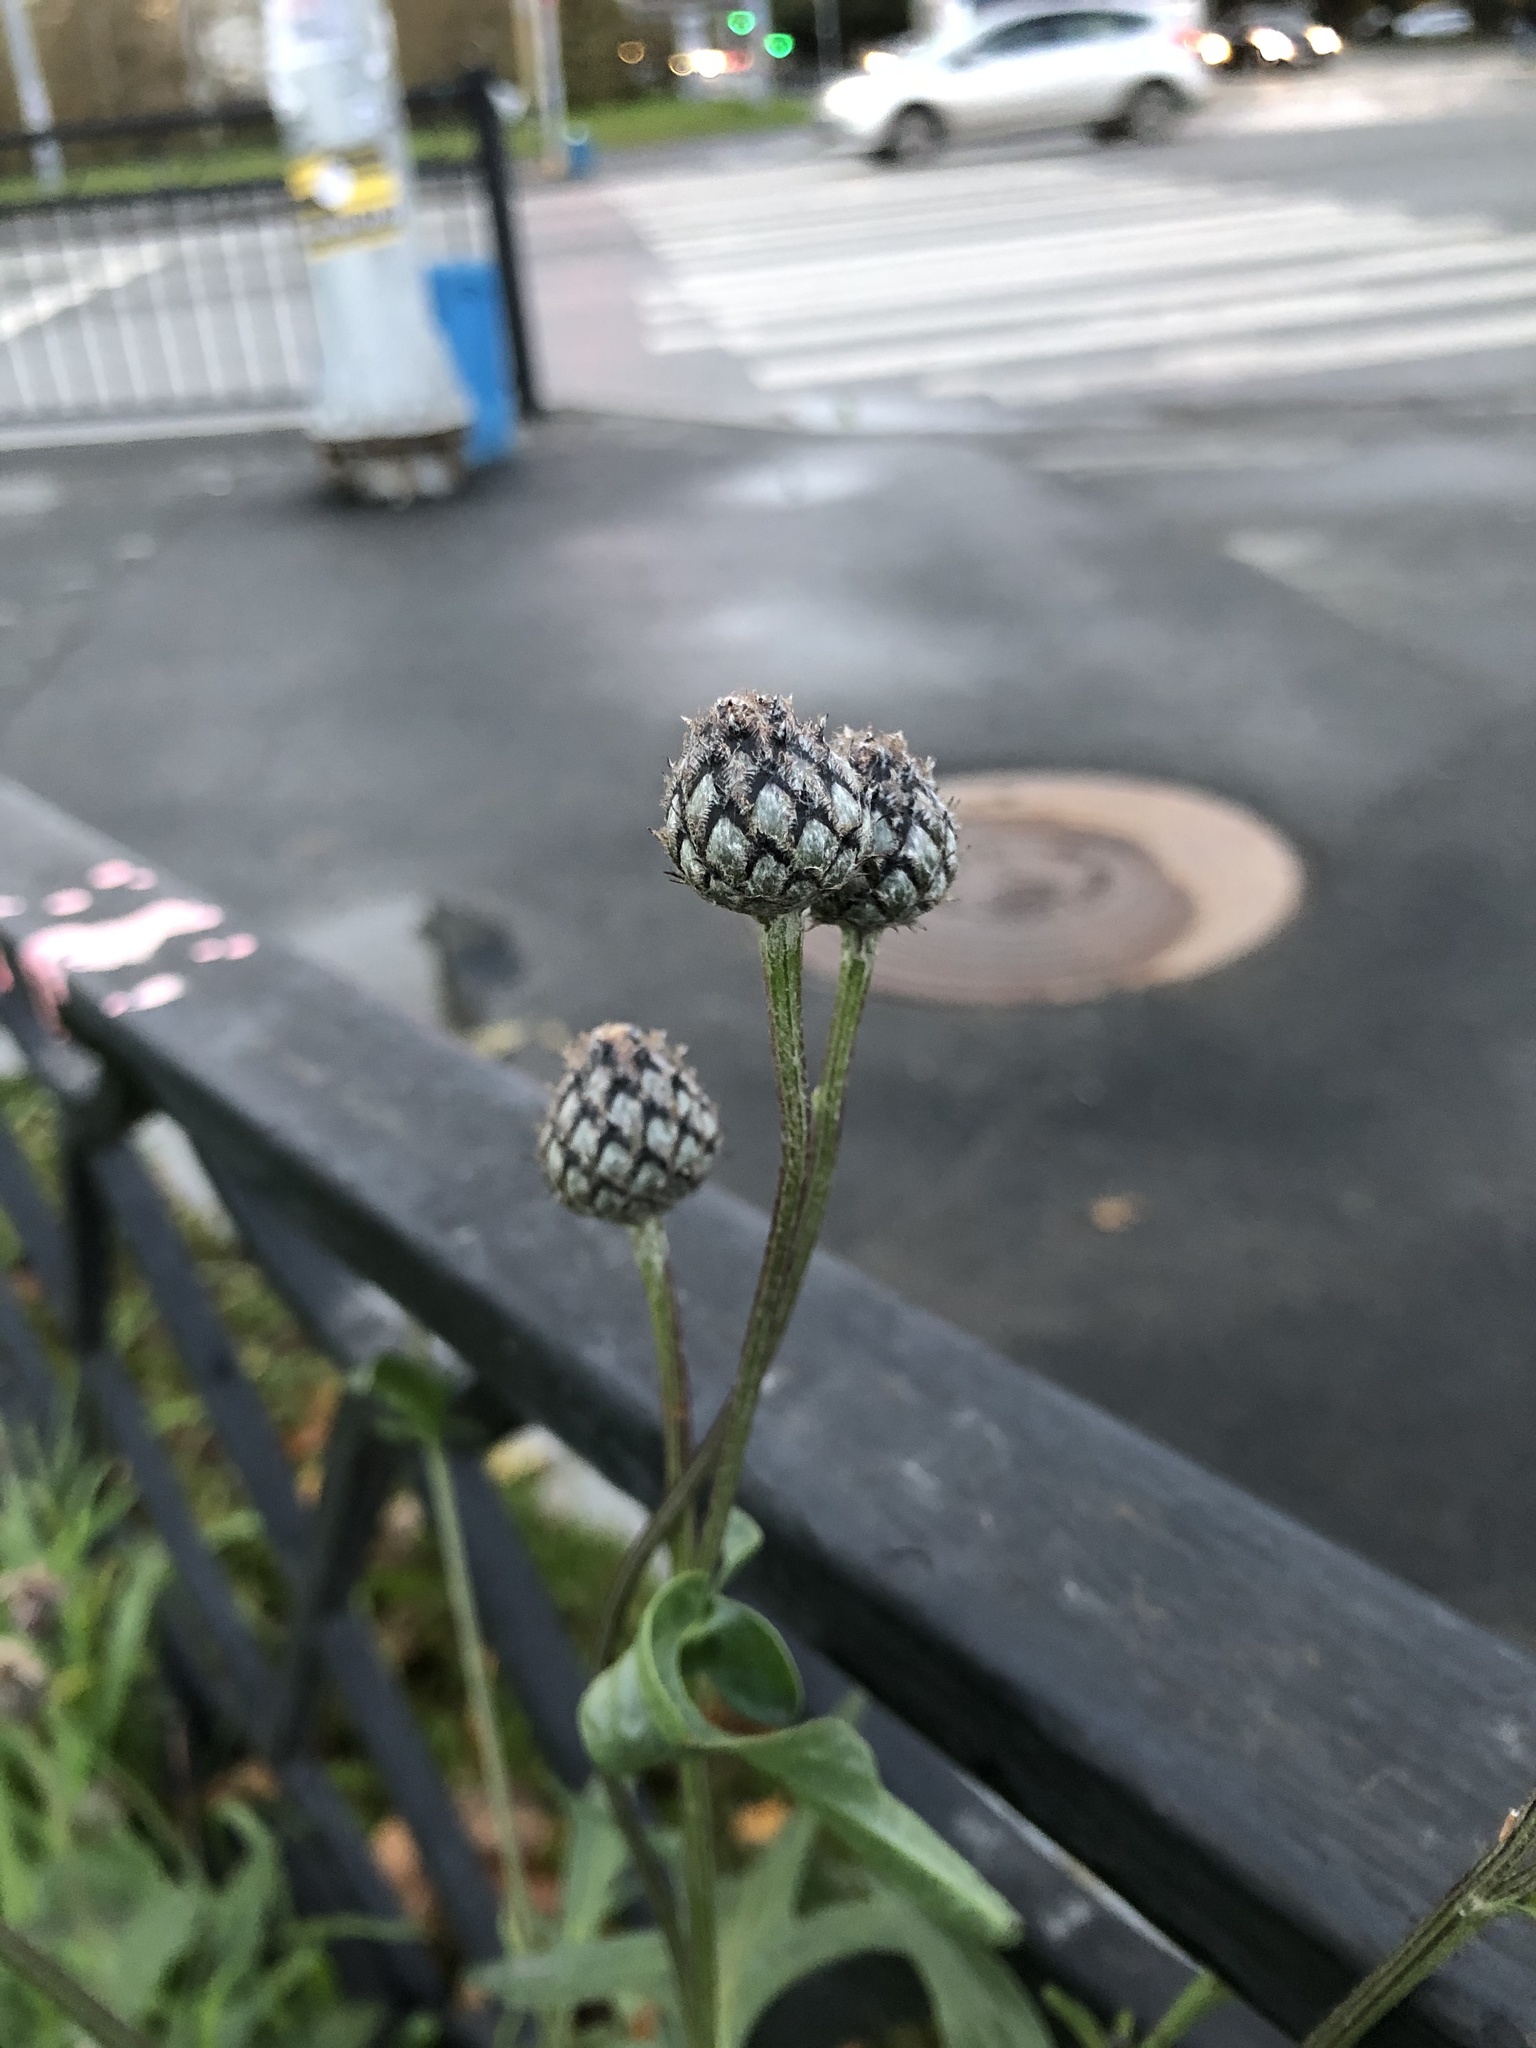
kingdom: Plantae
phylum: Tracheophyta
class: Magnoliopsida
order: Asterales
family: Asteraceae
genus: Centaurea
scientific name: Centaurea scabiosa
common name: Greater knapweed
